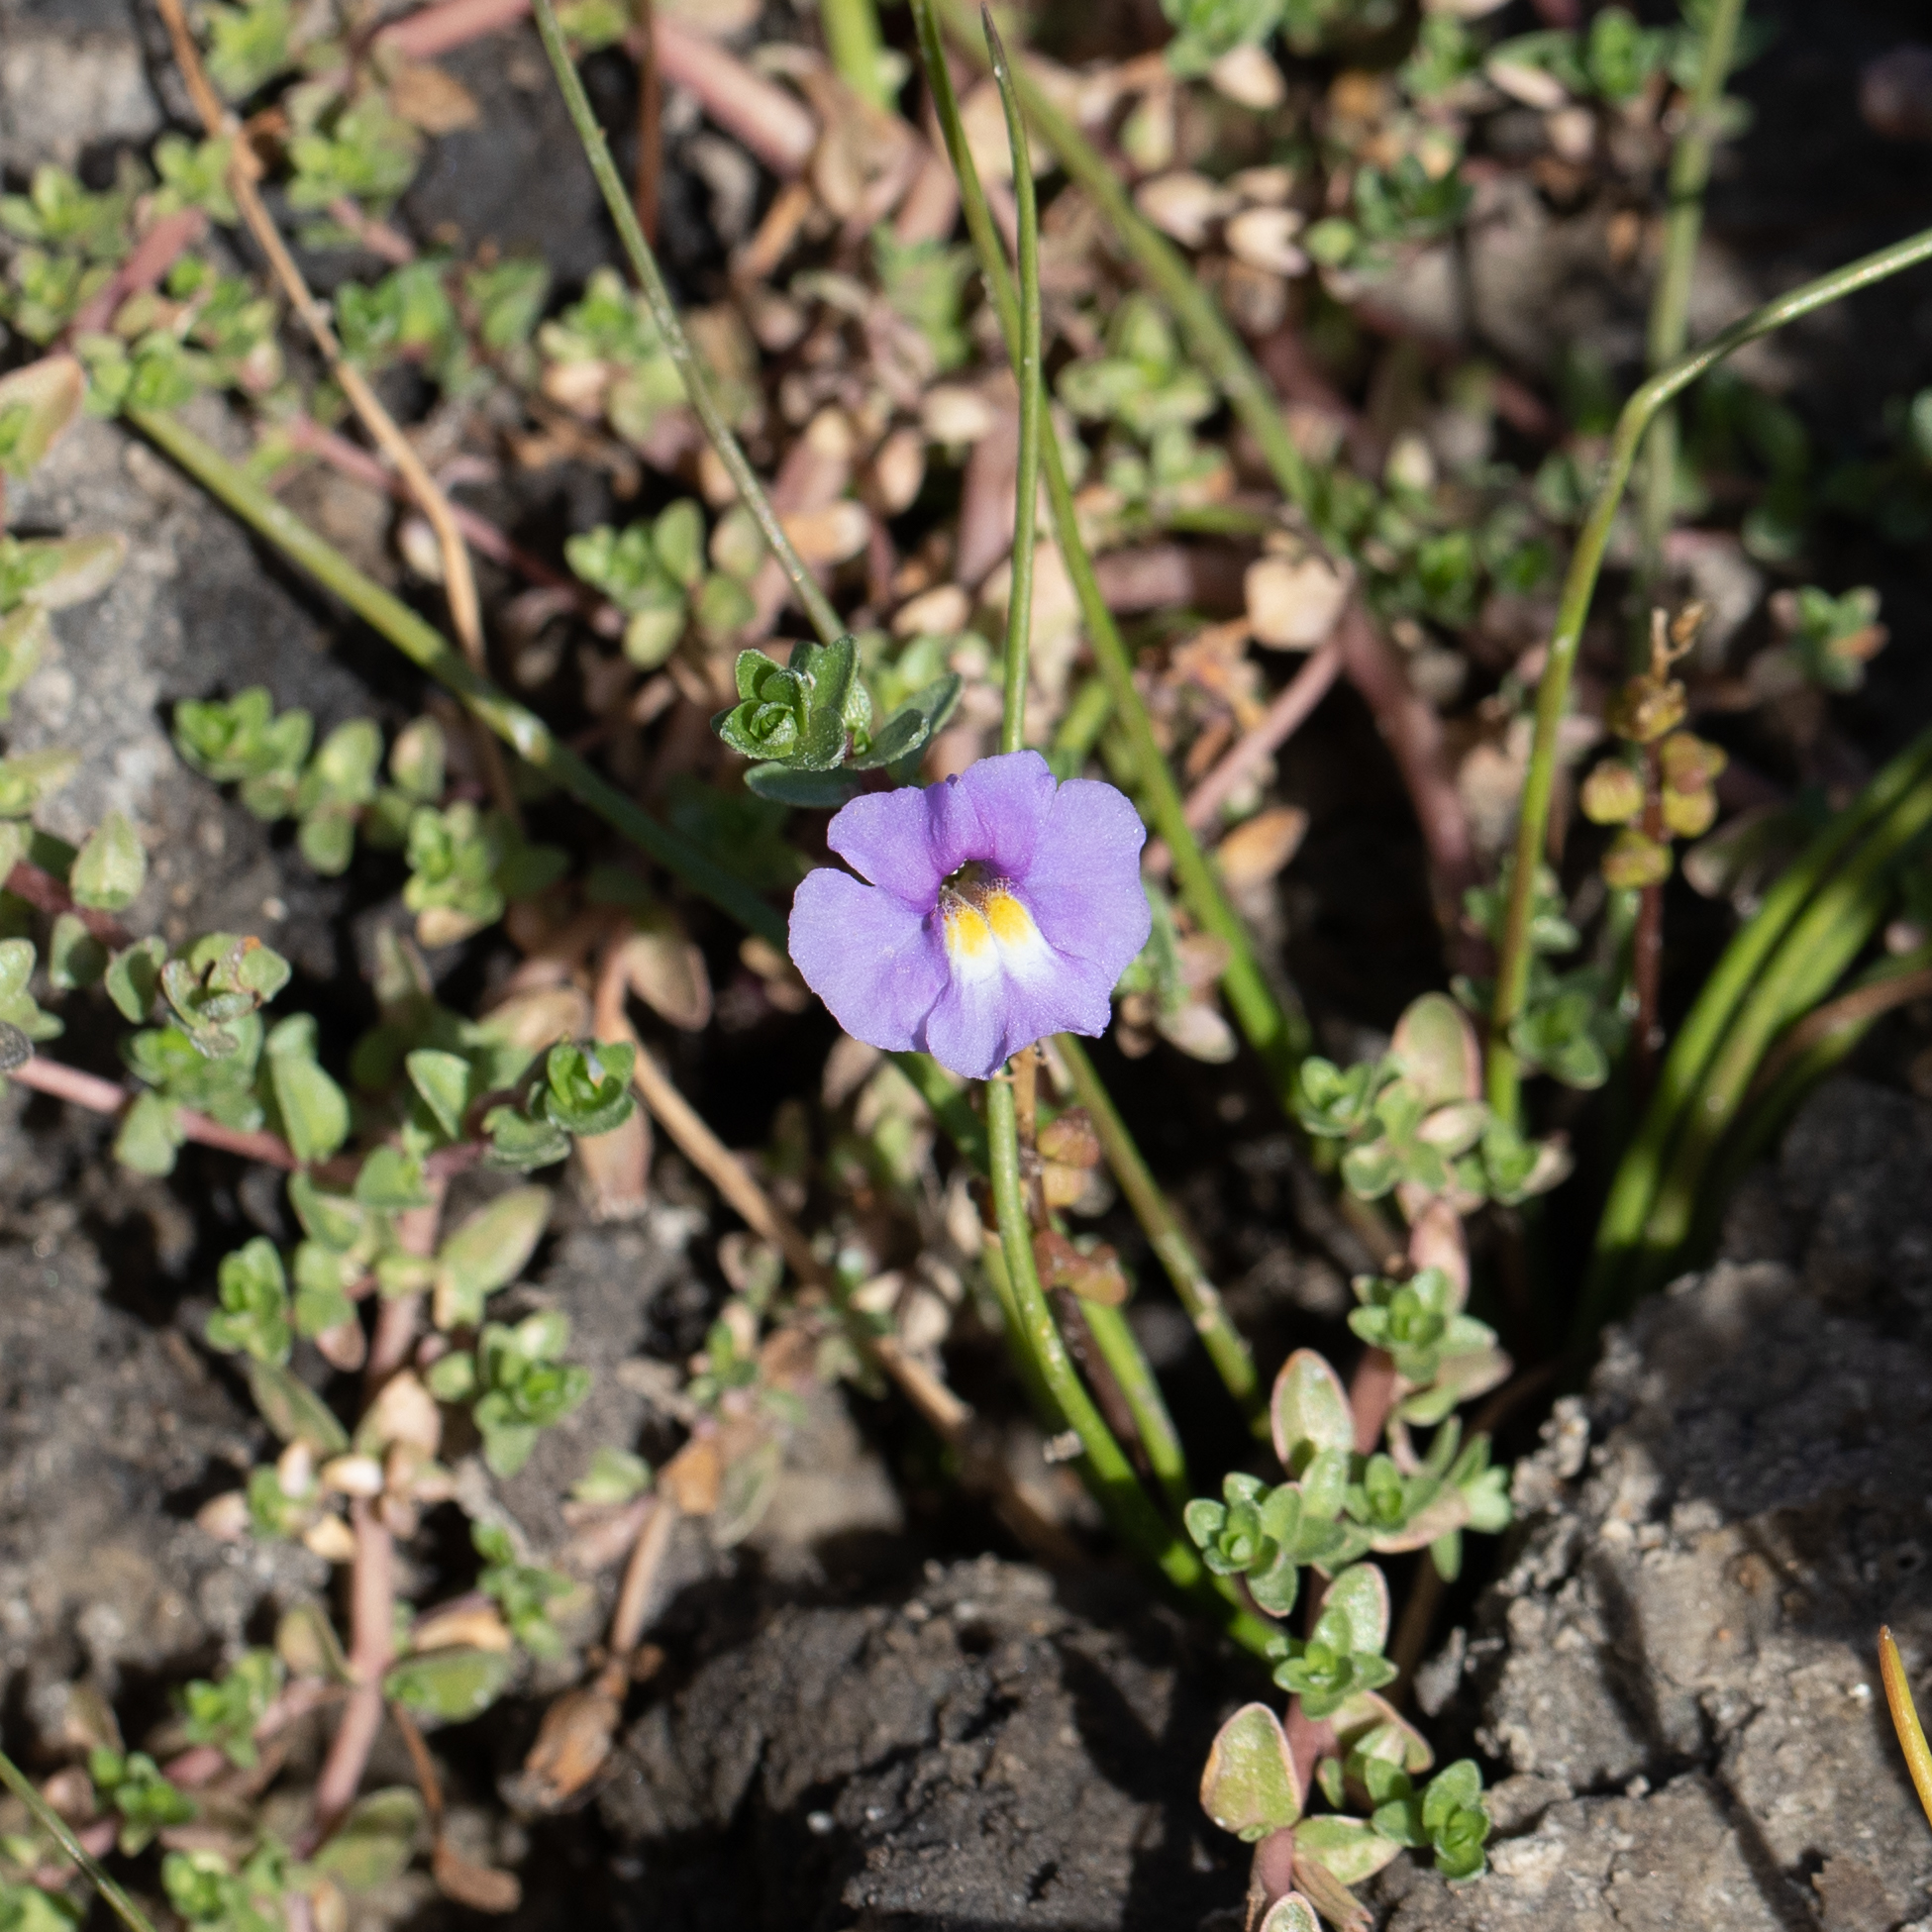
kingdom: Plantae
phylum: Tracheophyta
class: Magnoliopsida
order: Lamiales
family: Phrymaceae
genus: Thyridia
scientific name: Thyridia repens
